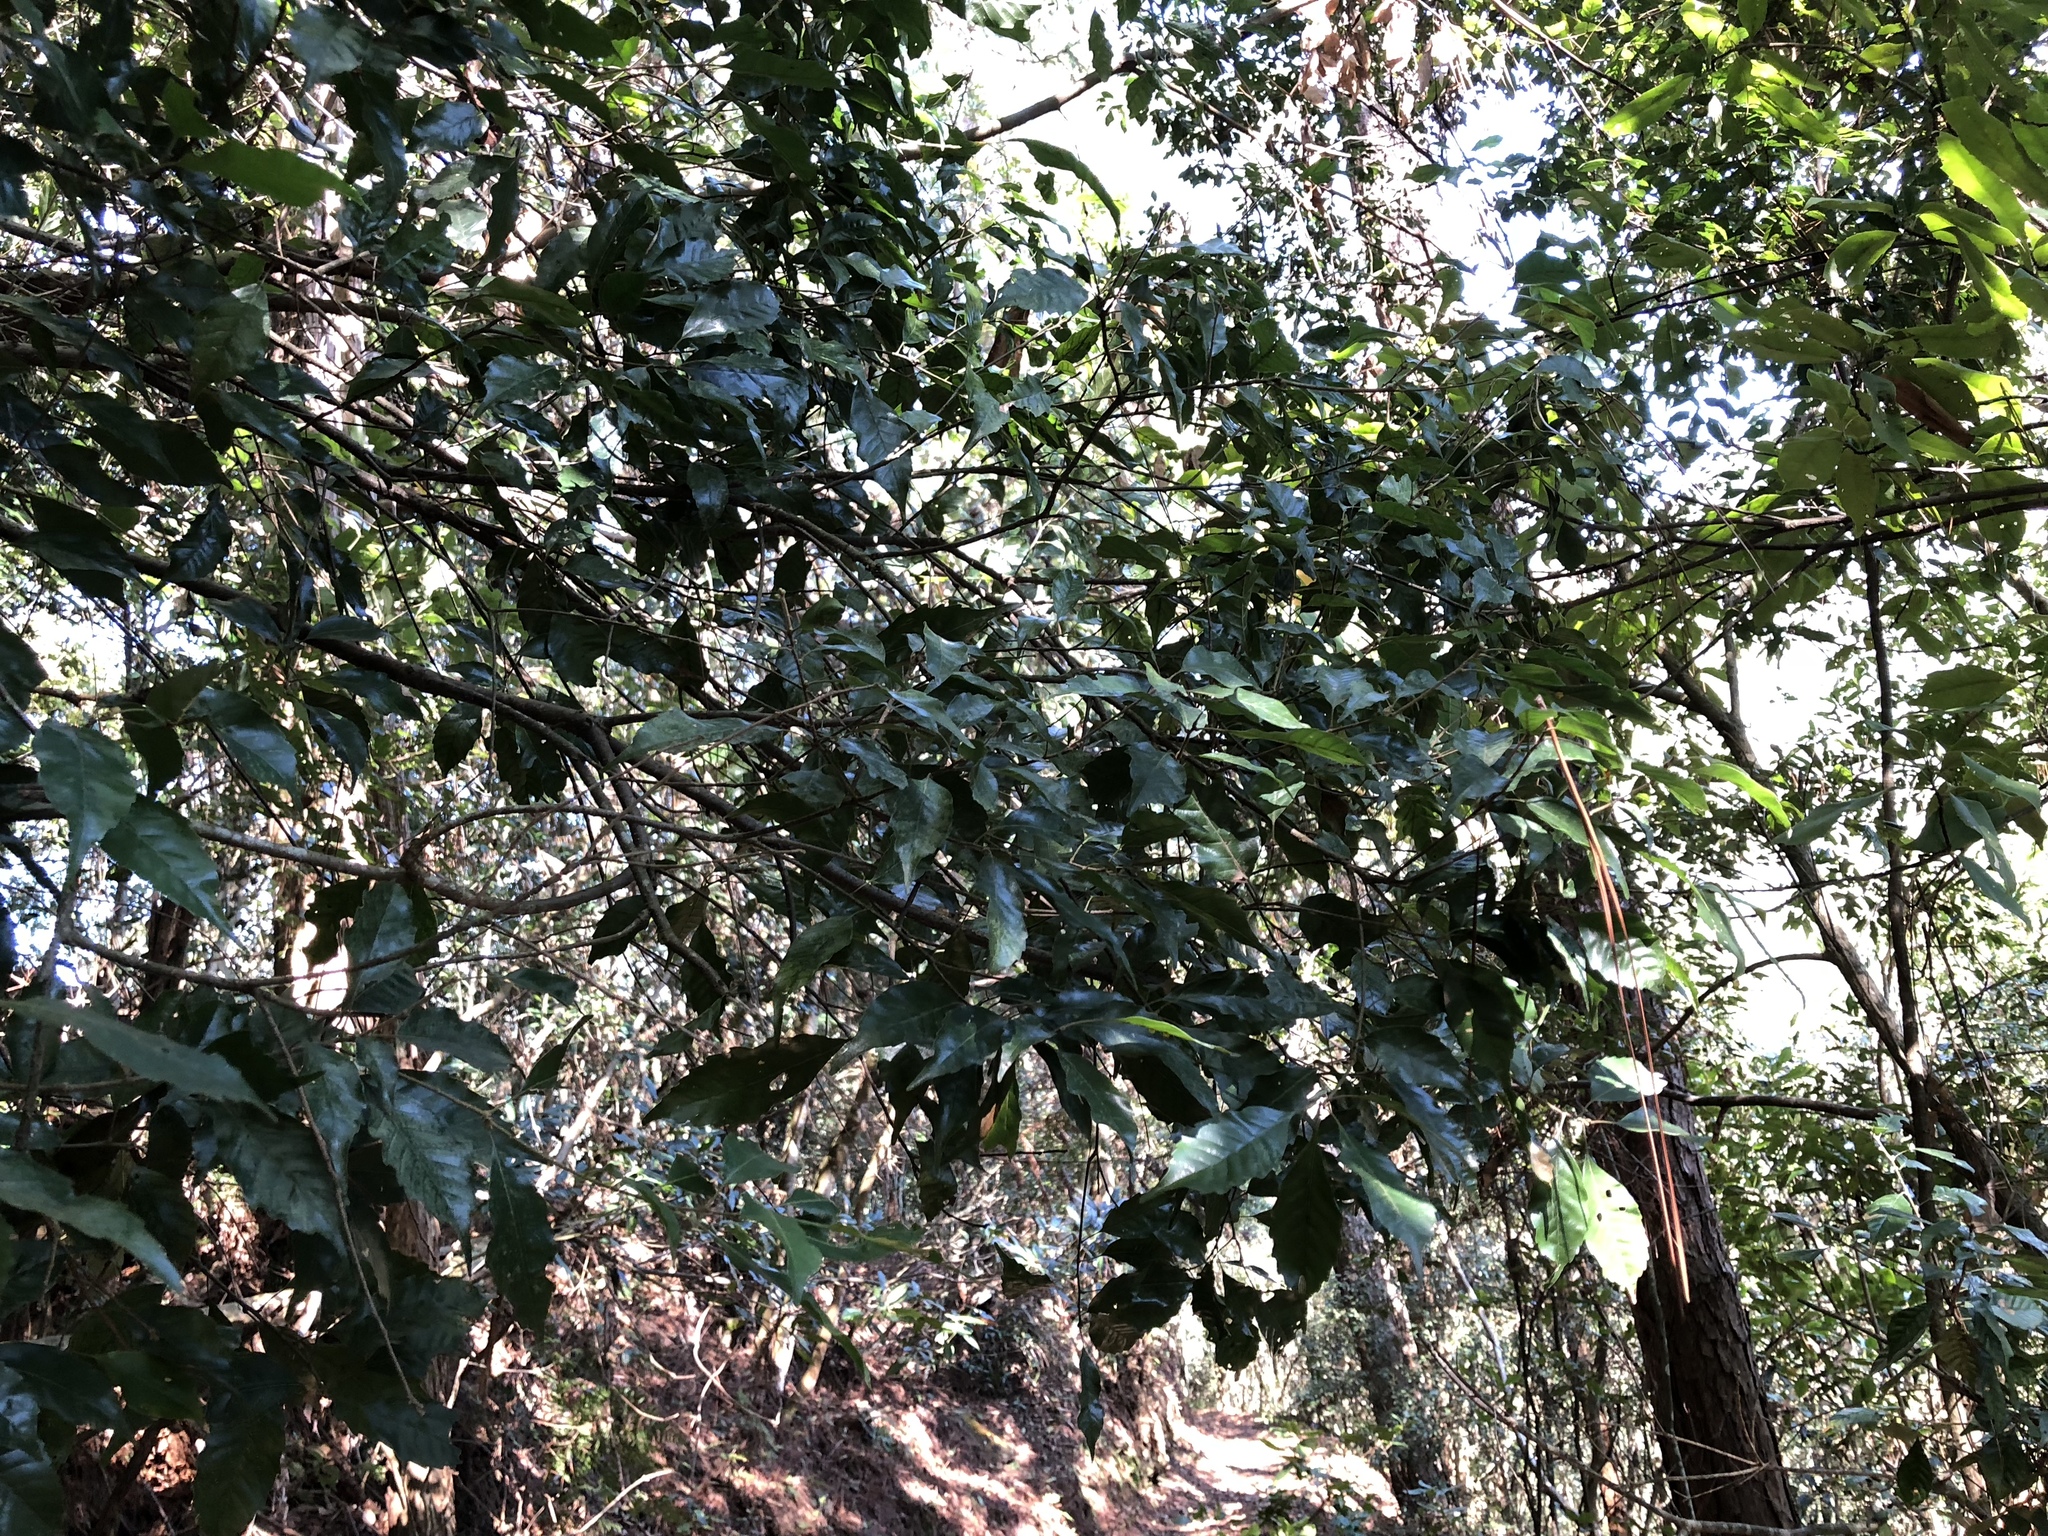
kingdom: Plantae
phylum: Tracheophyta
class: Magnoliopsida
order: Fagales
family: Fagaceae
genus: Lithocarpus
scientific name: Lithocarpus konishii
